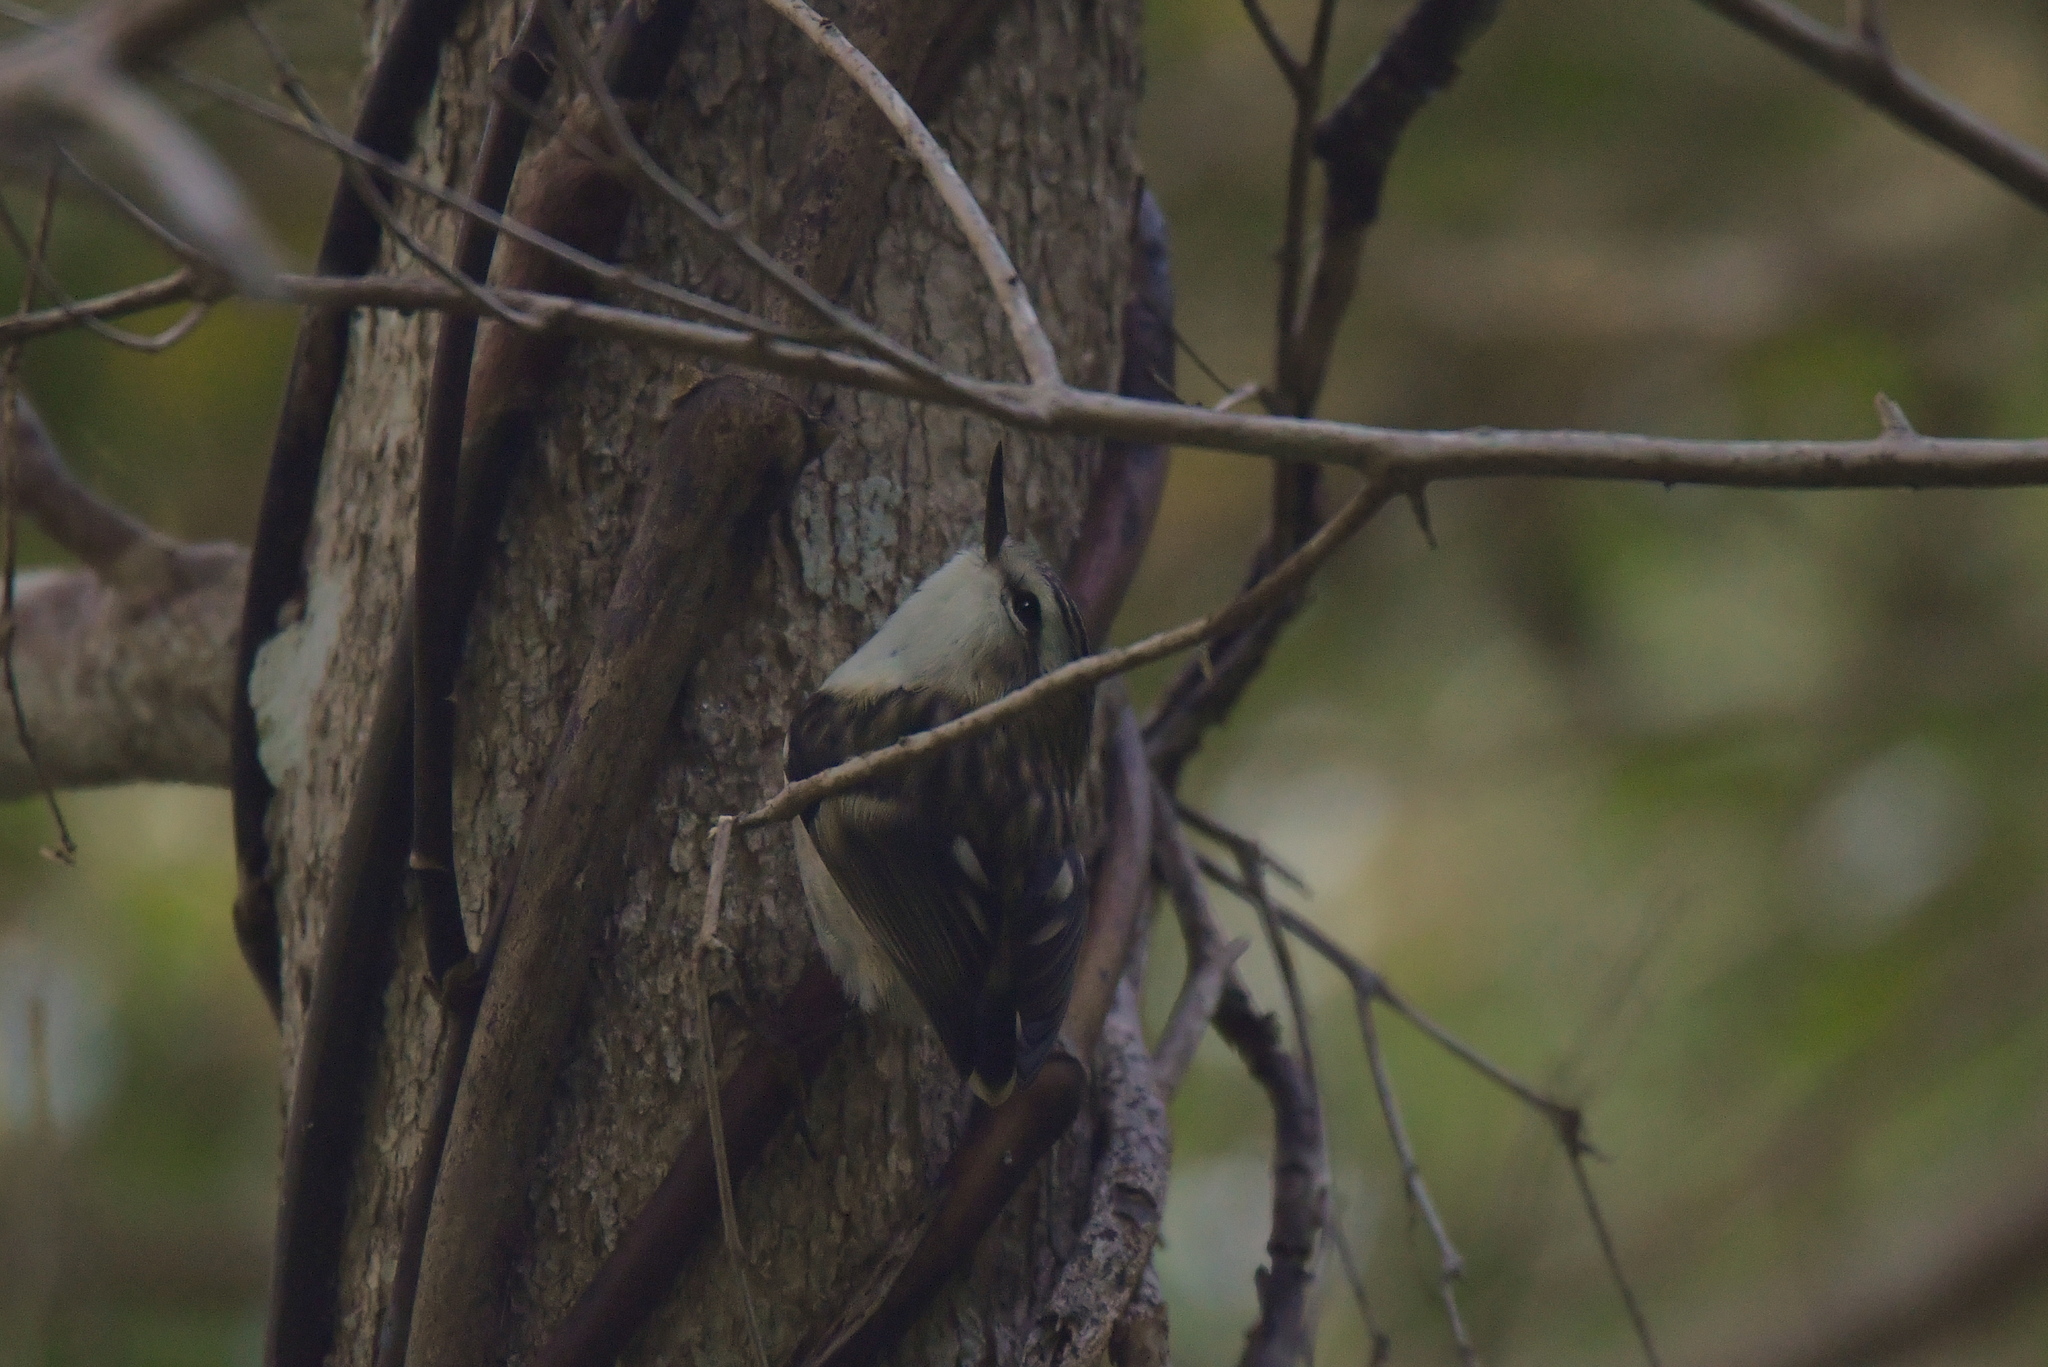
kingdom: Animalia
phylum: Chordata
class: Aves
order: Passeriformes
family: Acanthisittidae
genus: Acanthisitta
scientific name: Acanthisitta chloris
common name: Rifleman
